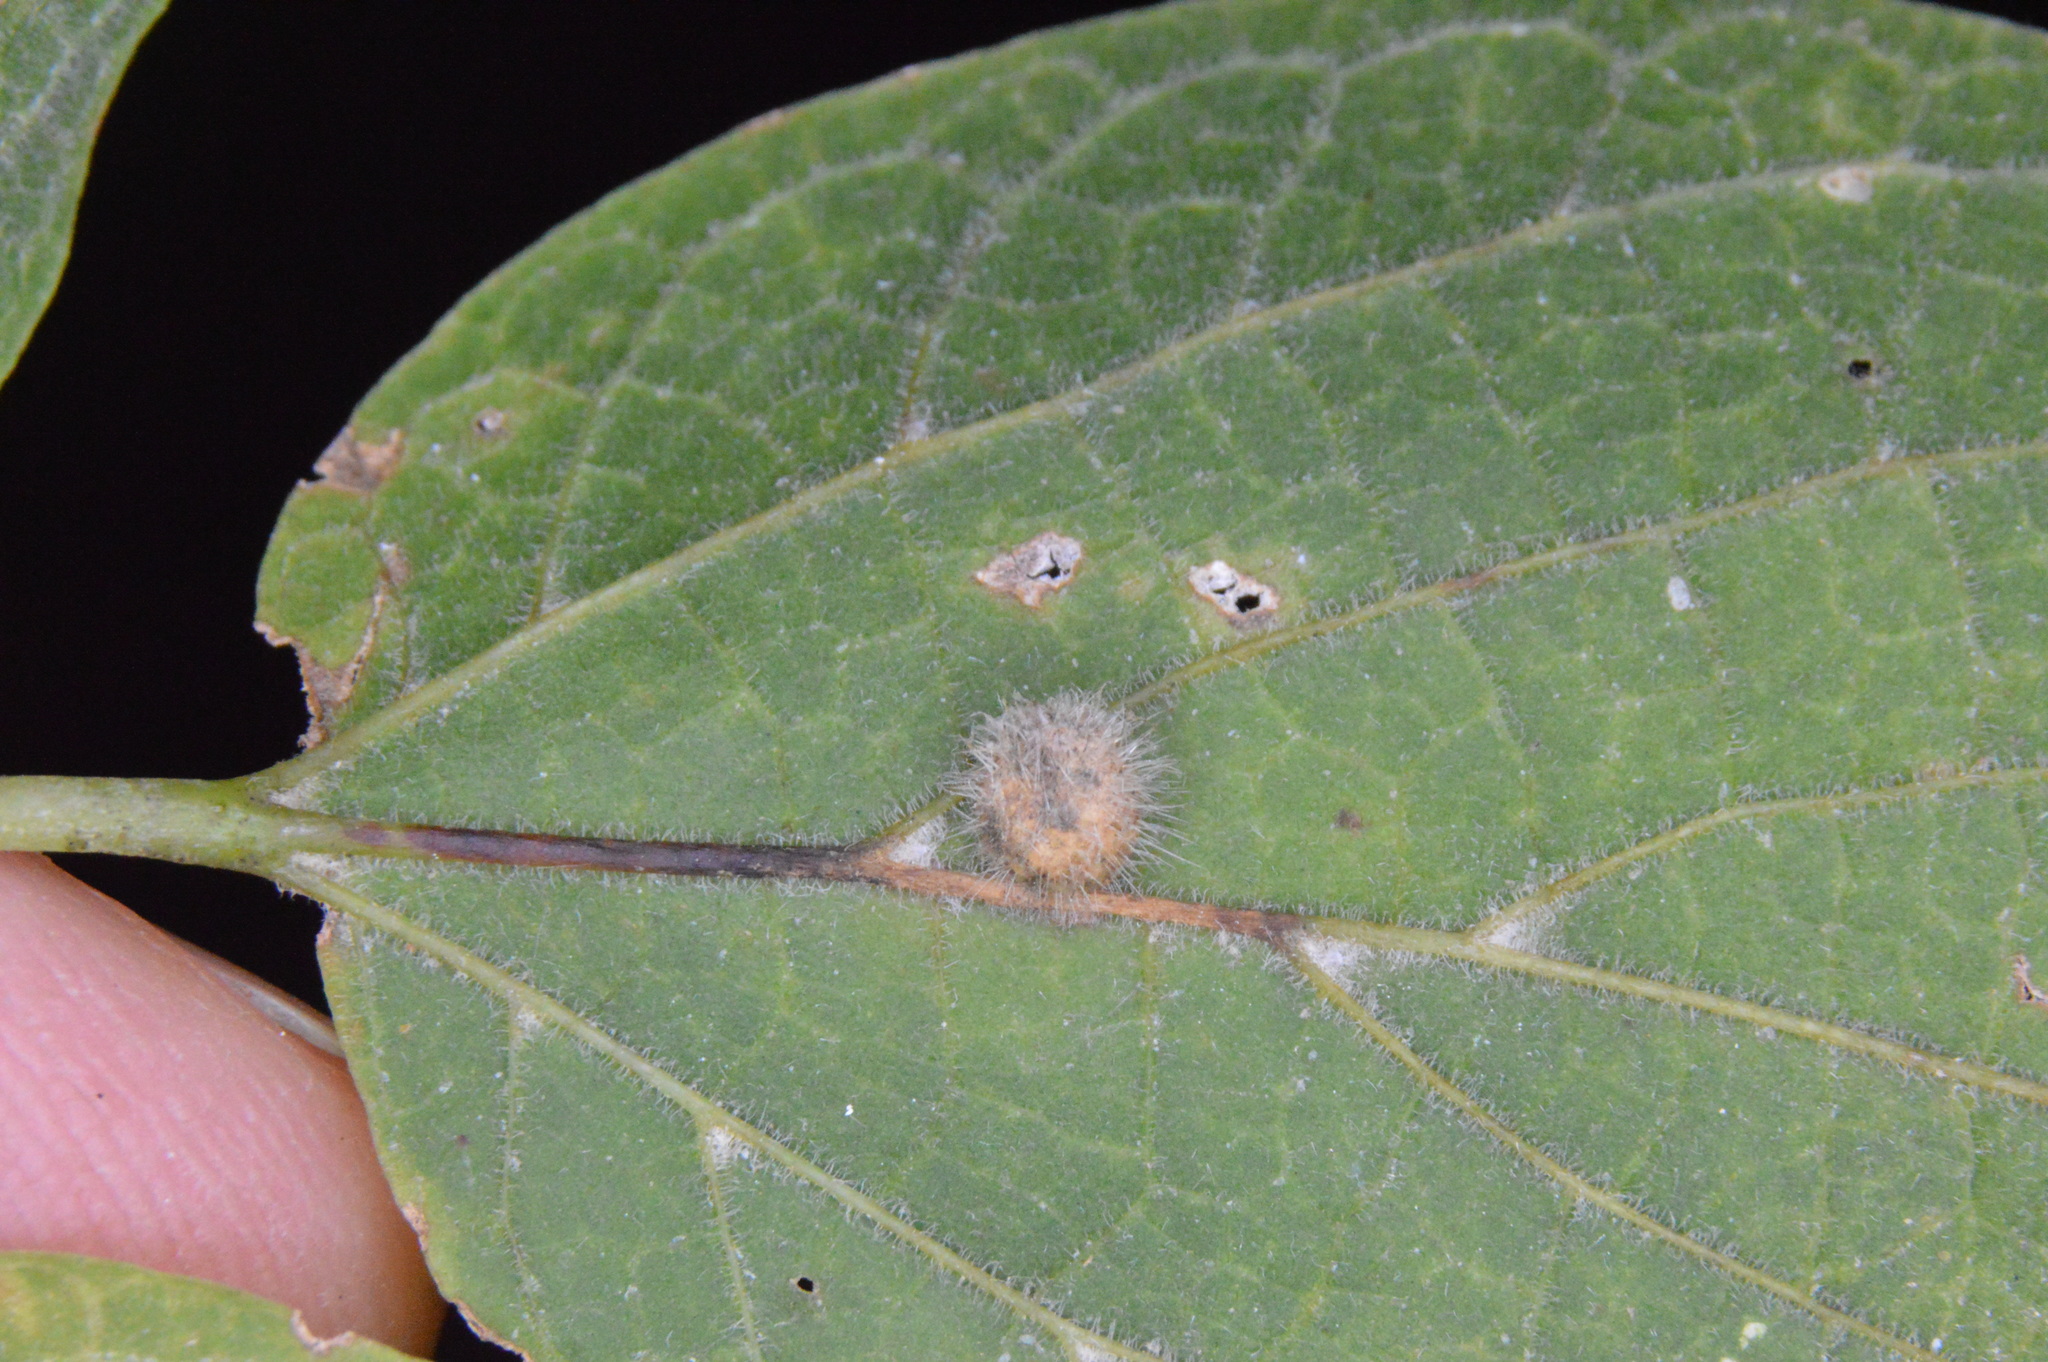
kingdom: Animalia
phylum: Arthropoda
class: Insecta
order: Diptera
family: Cecidomyiidae
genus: Celticecis
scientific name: Celticecis pubescens
